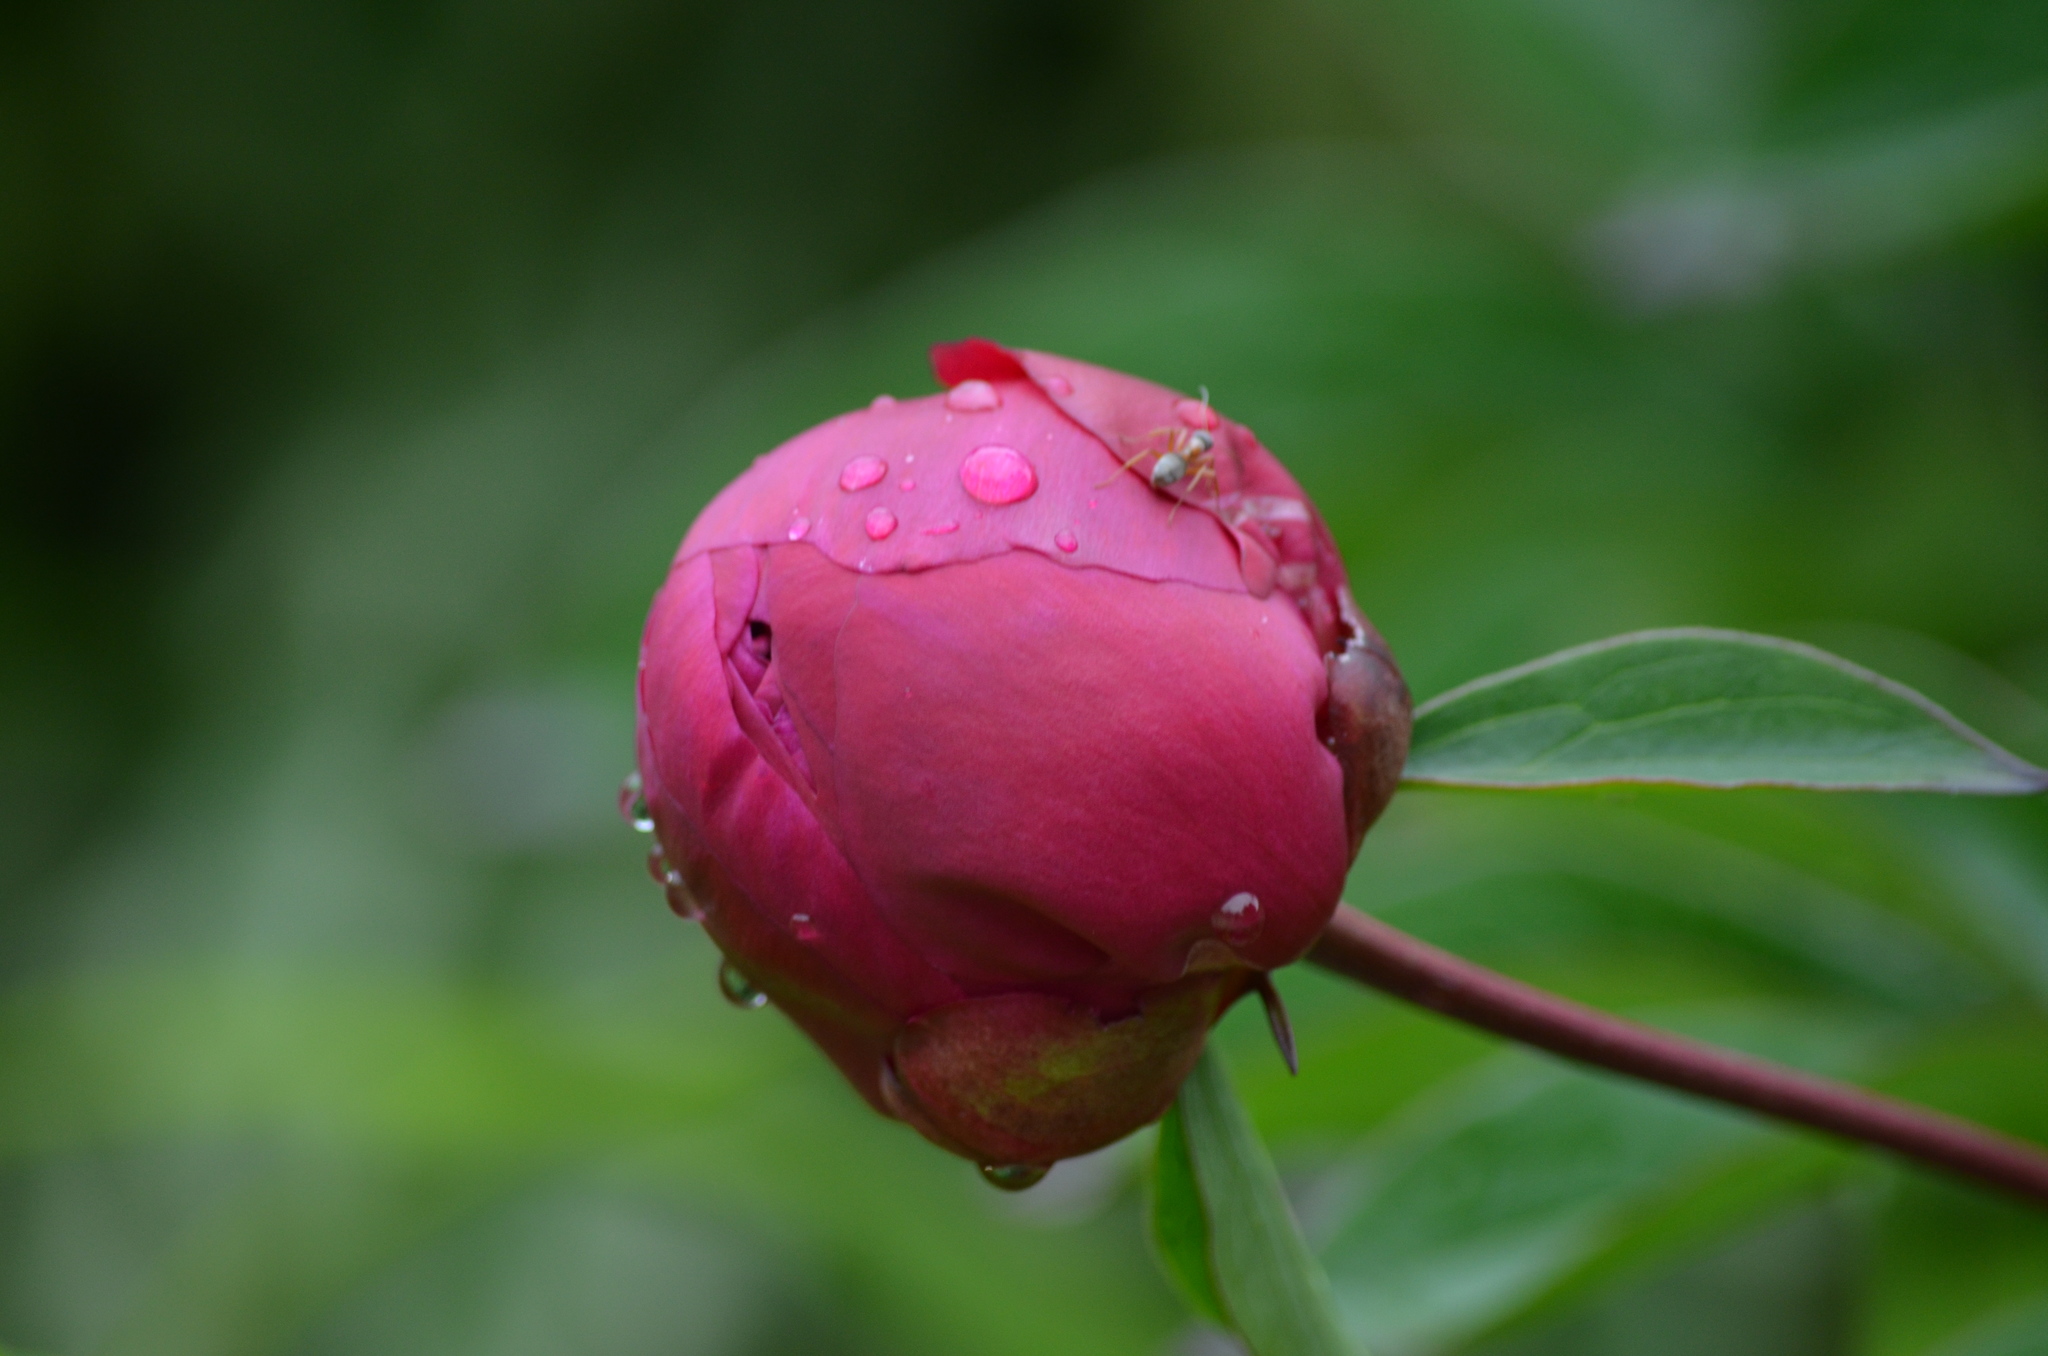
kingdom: Animalia
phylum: Arthropoda
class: Insecta
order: Hymenoptera
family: Formicidae
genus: Formica
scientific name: Formica pacifica
